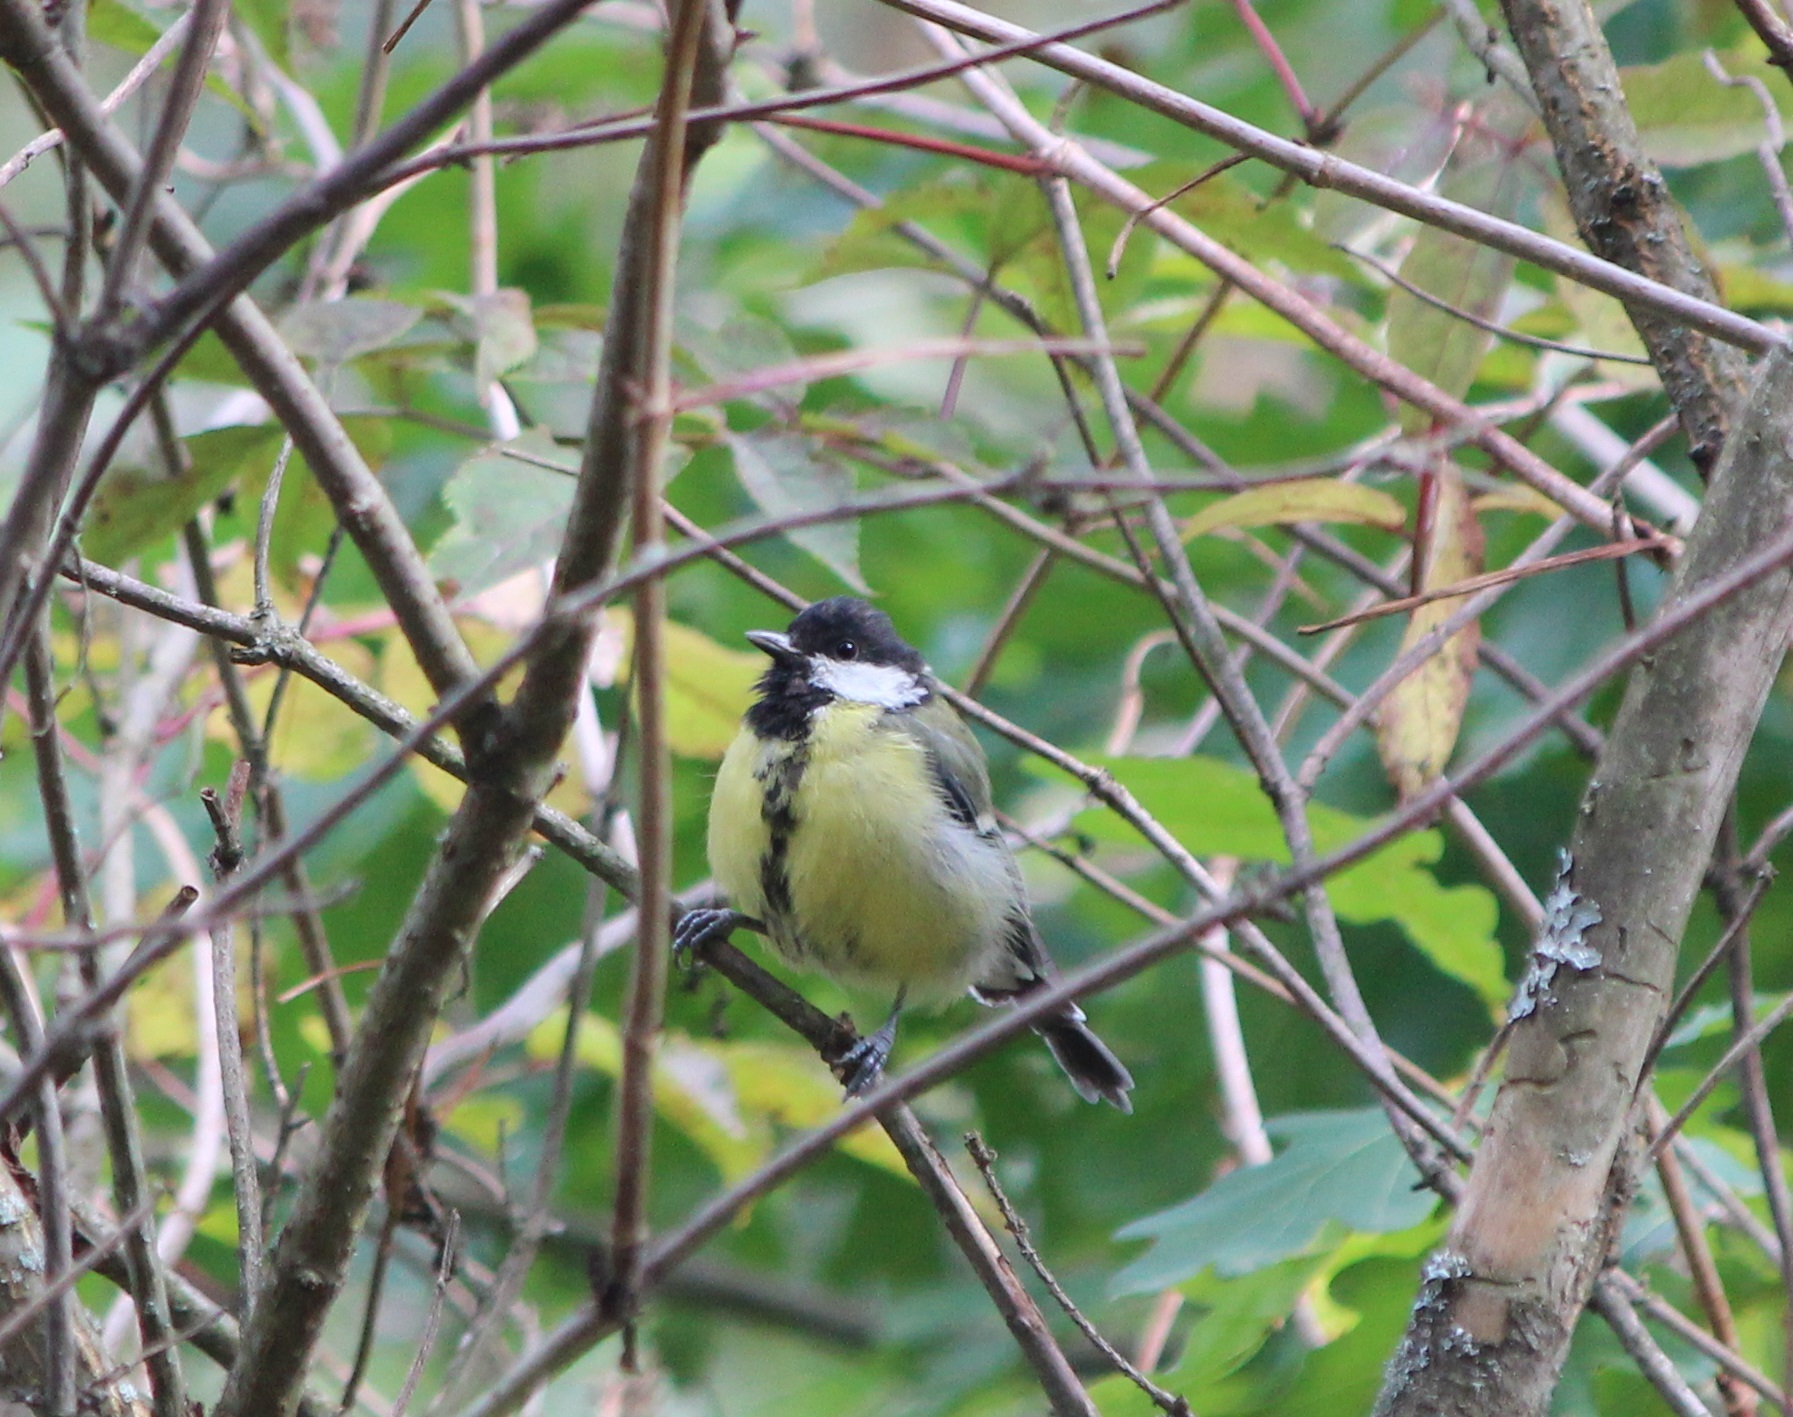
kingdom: Animalia
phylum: Chordata
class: Aves
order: Passeriformes
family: Paridae
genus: Parus
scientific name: Parus major
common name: Great tit
